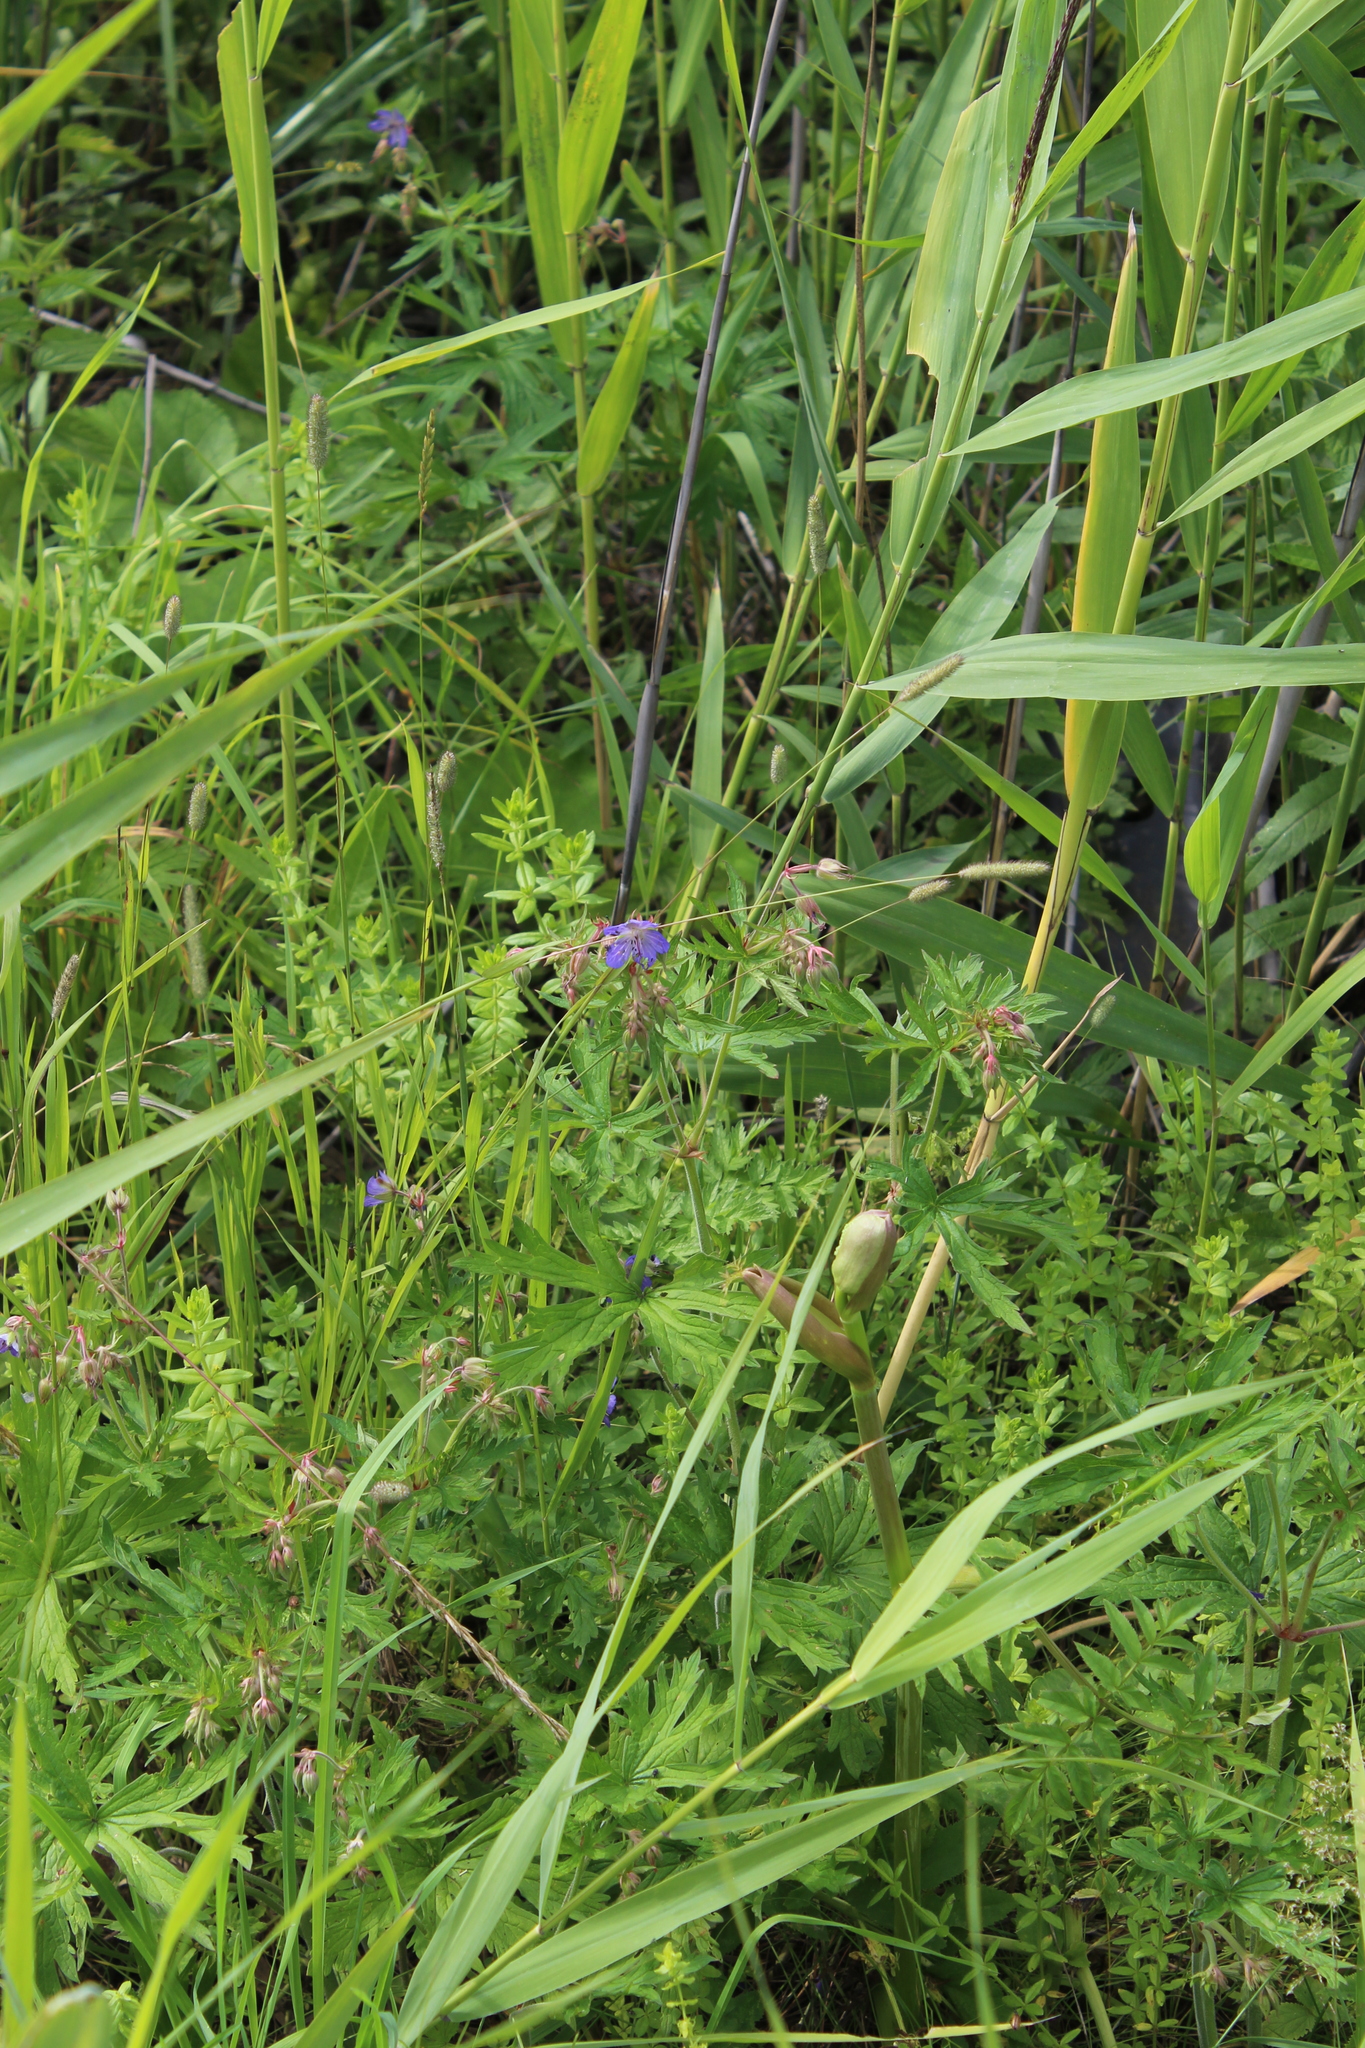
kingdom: Plantae
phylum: Tracheophyta
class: Magnoliopsida
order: Geraniales
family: Geraniaceae
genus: Geranium
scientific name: Geranium pratense
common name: Meadow crane's-bill
